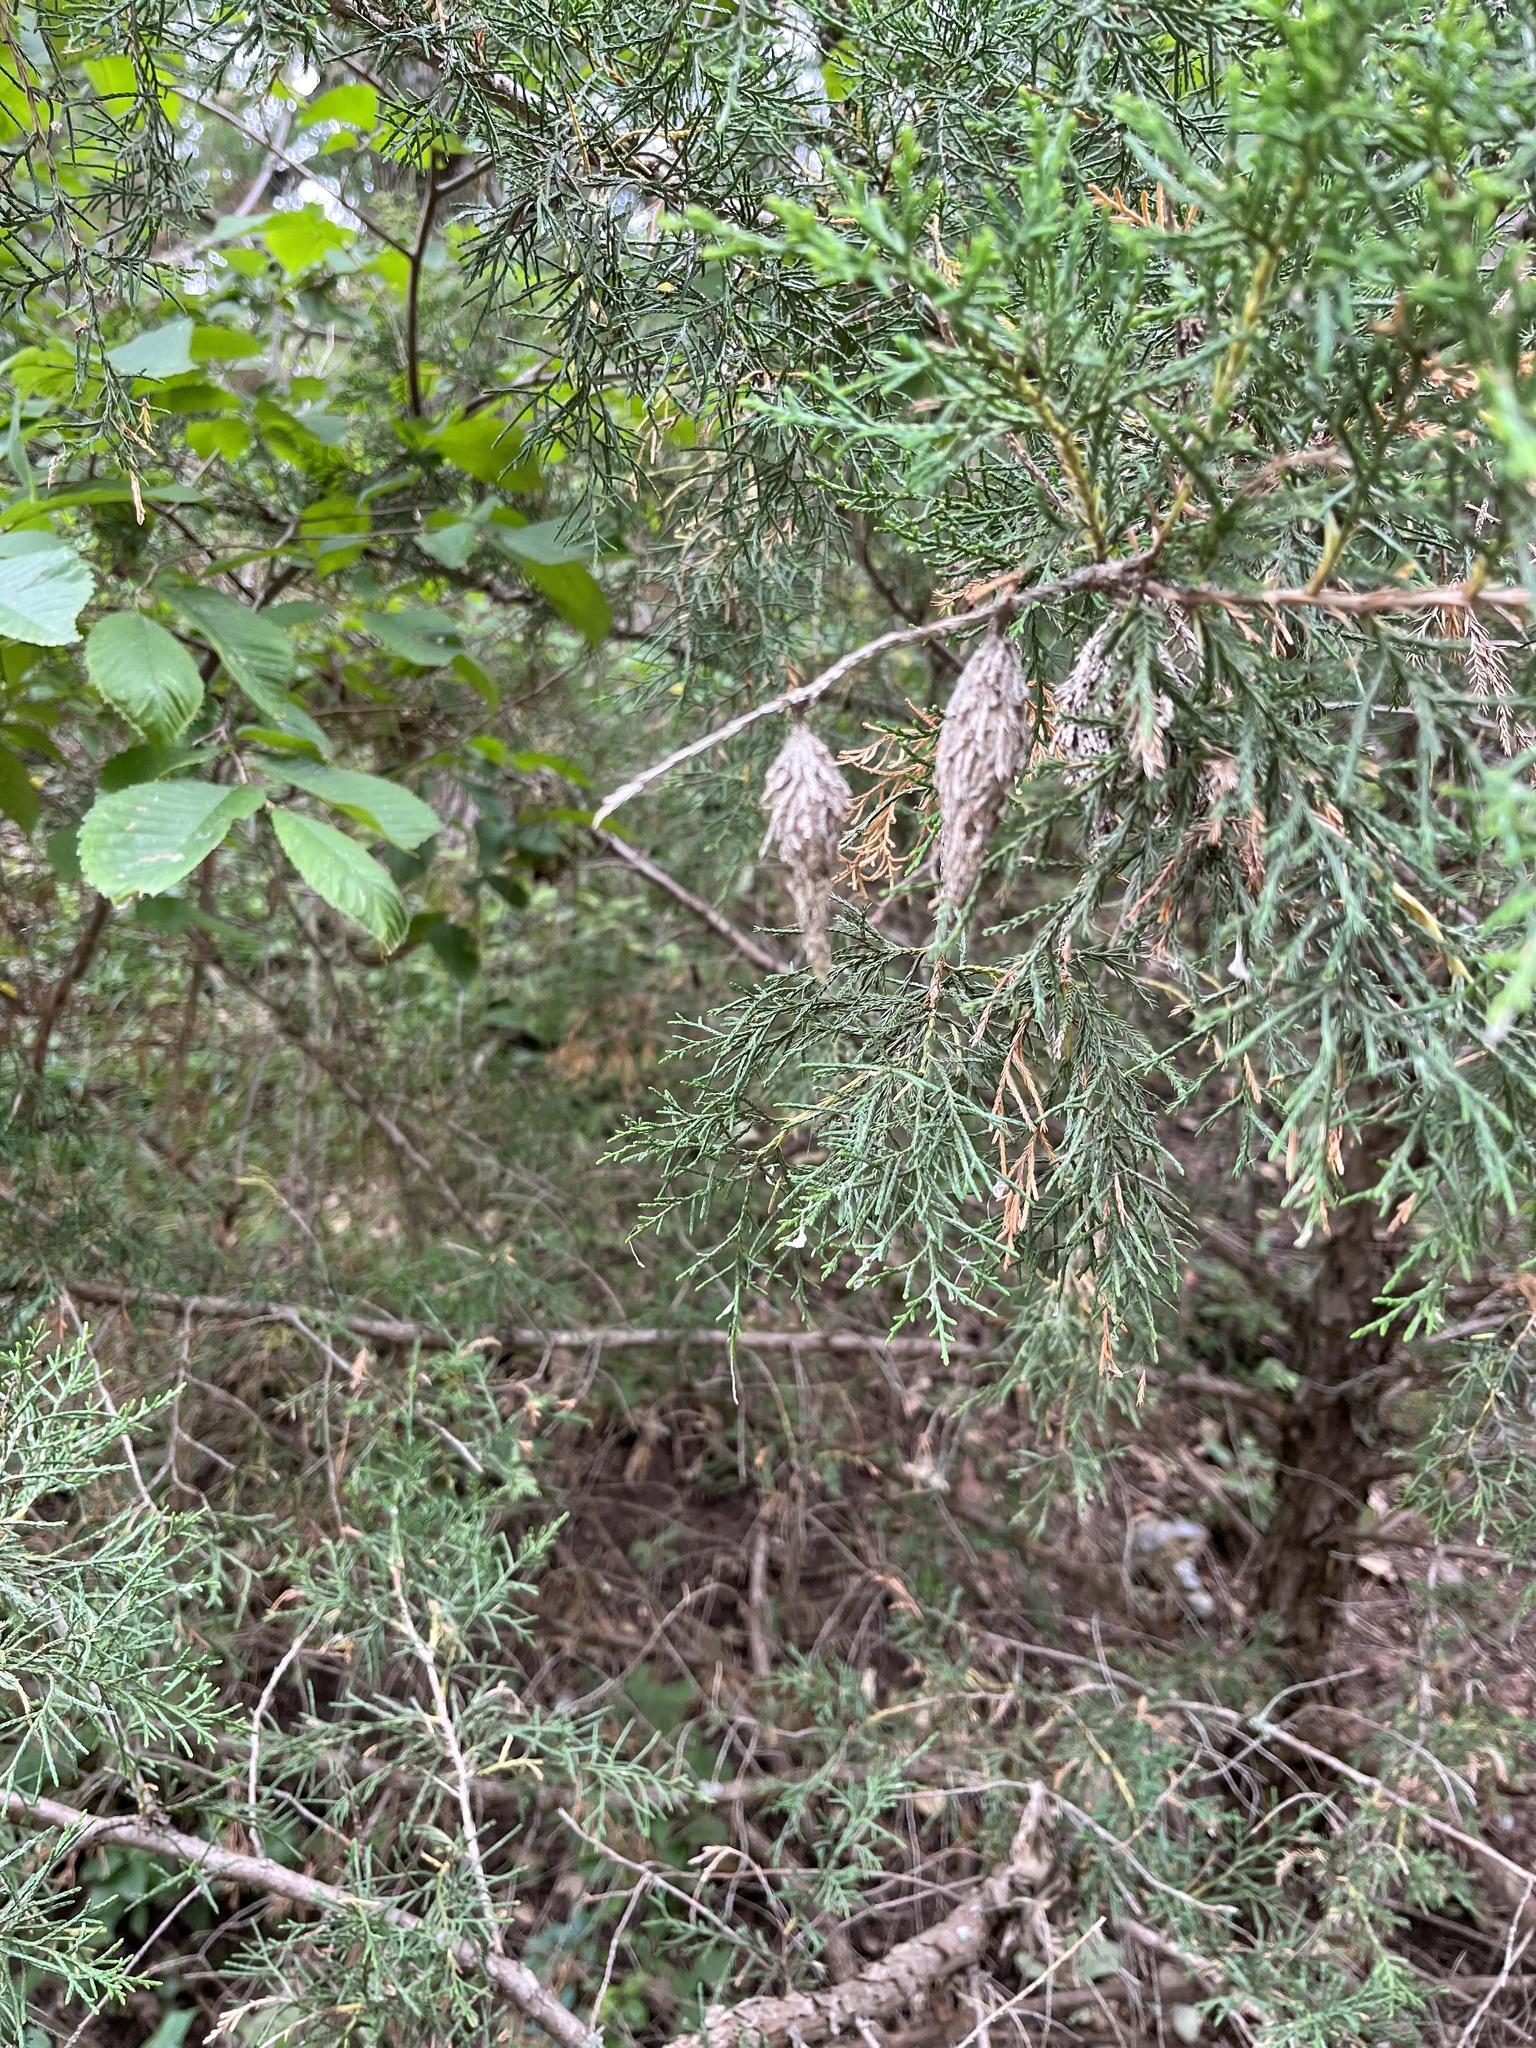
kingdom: Animalia
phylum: Arthropoda
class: Insecta
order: Lepidoptera
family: Psychidae
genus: Thyridopteryx
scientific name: Thyridopteryx ephemeraeformis
